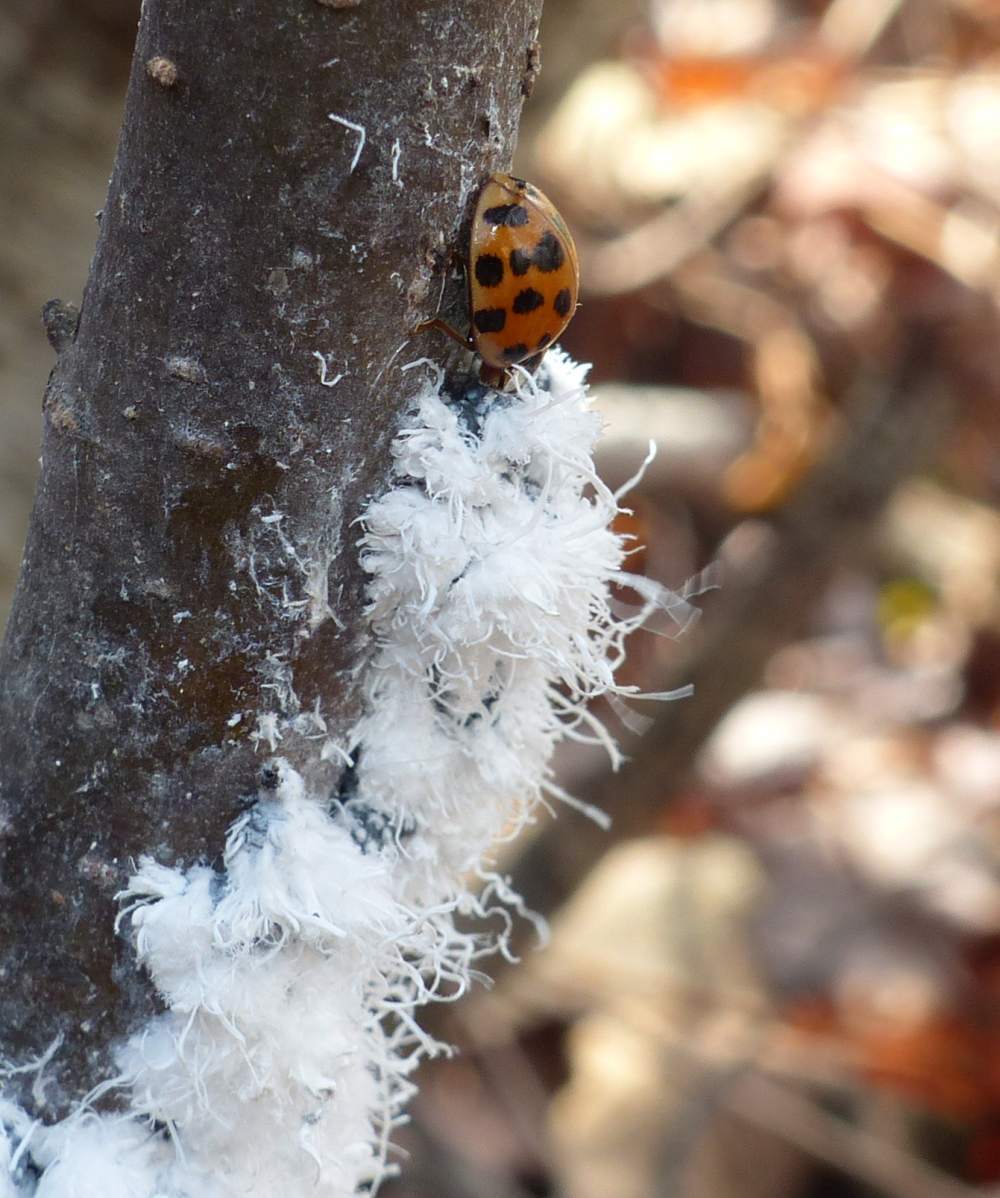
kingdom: Animalia
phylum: Arthropoda
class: Insecta
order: Hemiptera
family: Aphididae
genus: Prociphilus
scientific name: Prociphilus tessellatus
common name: Woolly alder aphid
